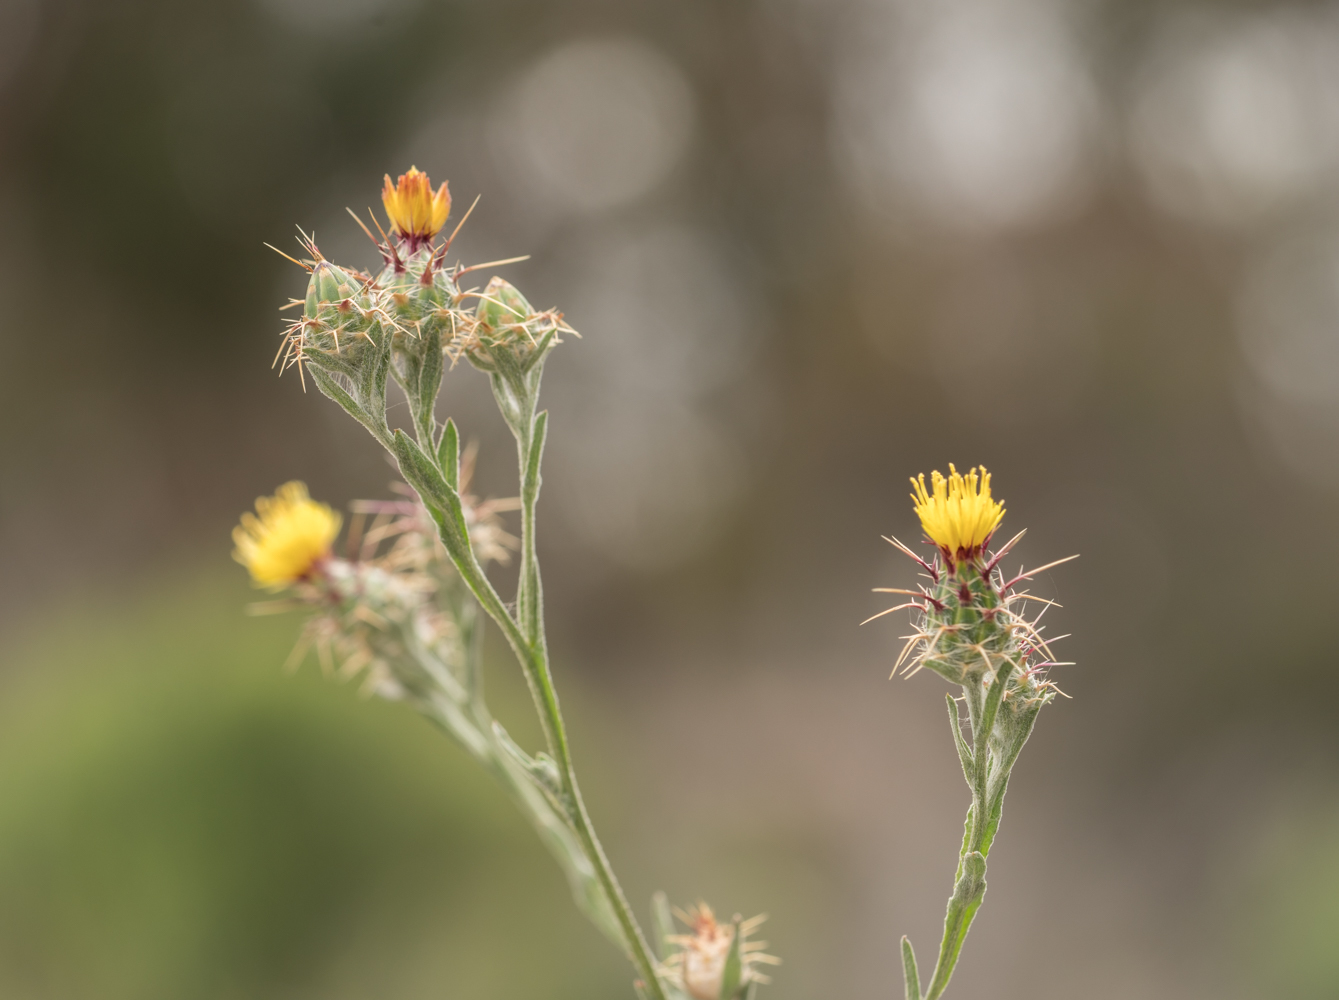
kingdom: Plantae
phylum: Tracheophyta
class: Magnoliopsida
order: Asterales
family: Asteraceae
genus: Centaurea
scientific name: Centaurea melitensis
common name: Maltese star-thistle
